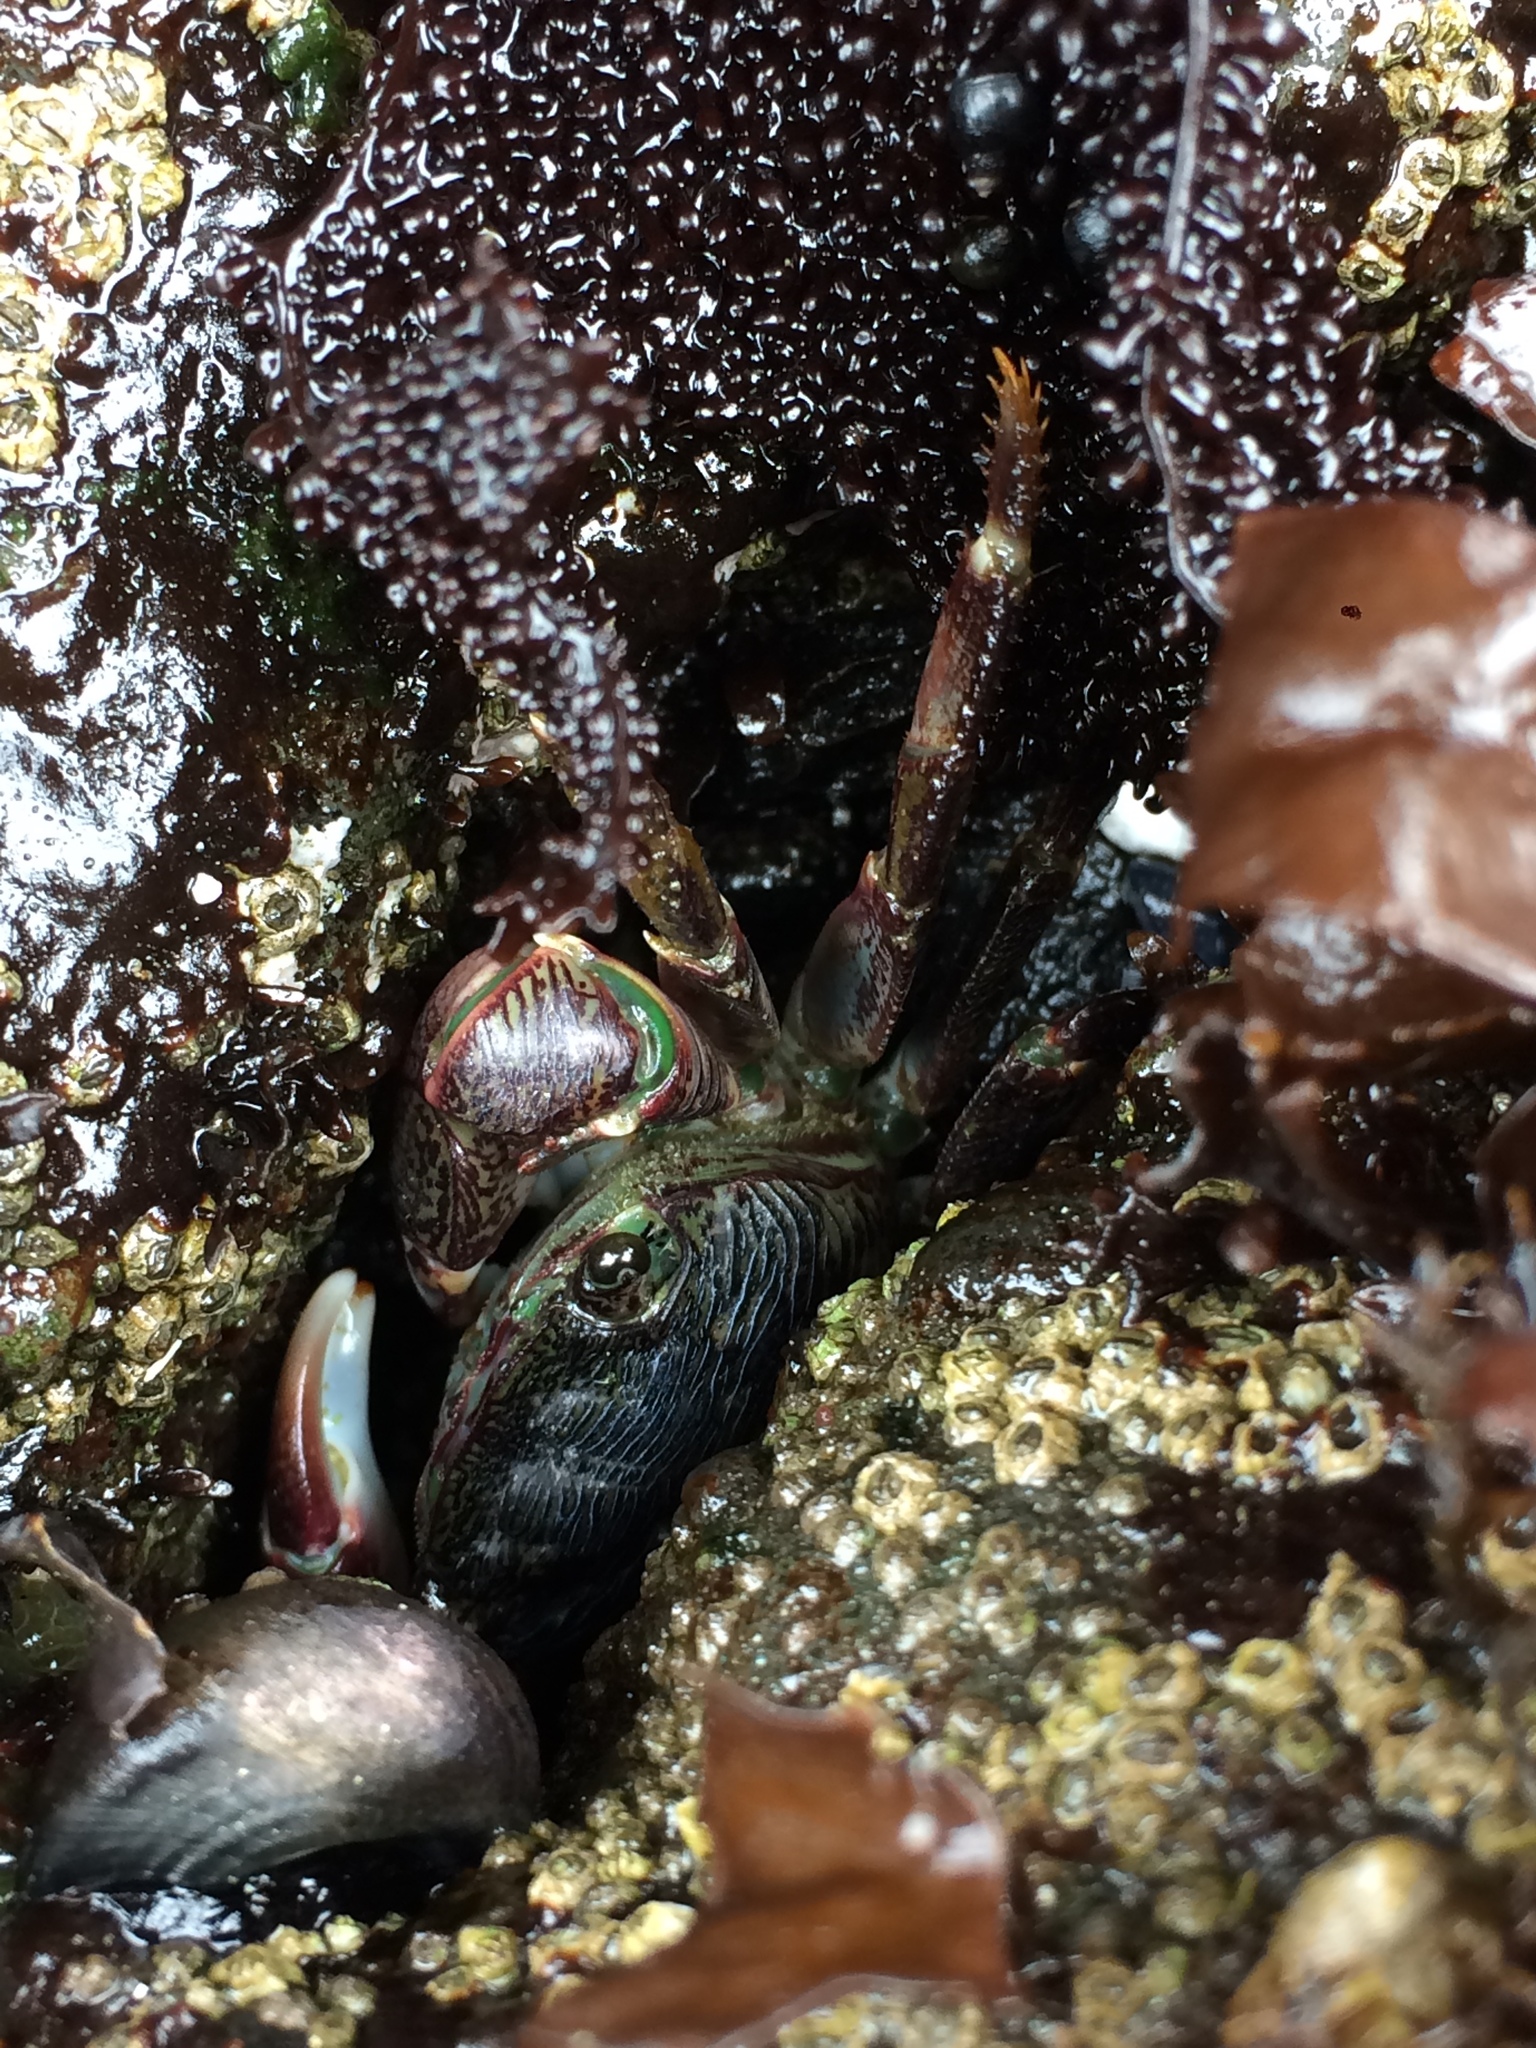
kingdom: Animalia
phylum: Arthropoda
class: Malacostraca
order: Decapoda
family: Grapsidae
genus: Pachygrapsus
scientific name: Pachygrapsus crassipes
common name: Striped shore crab
